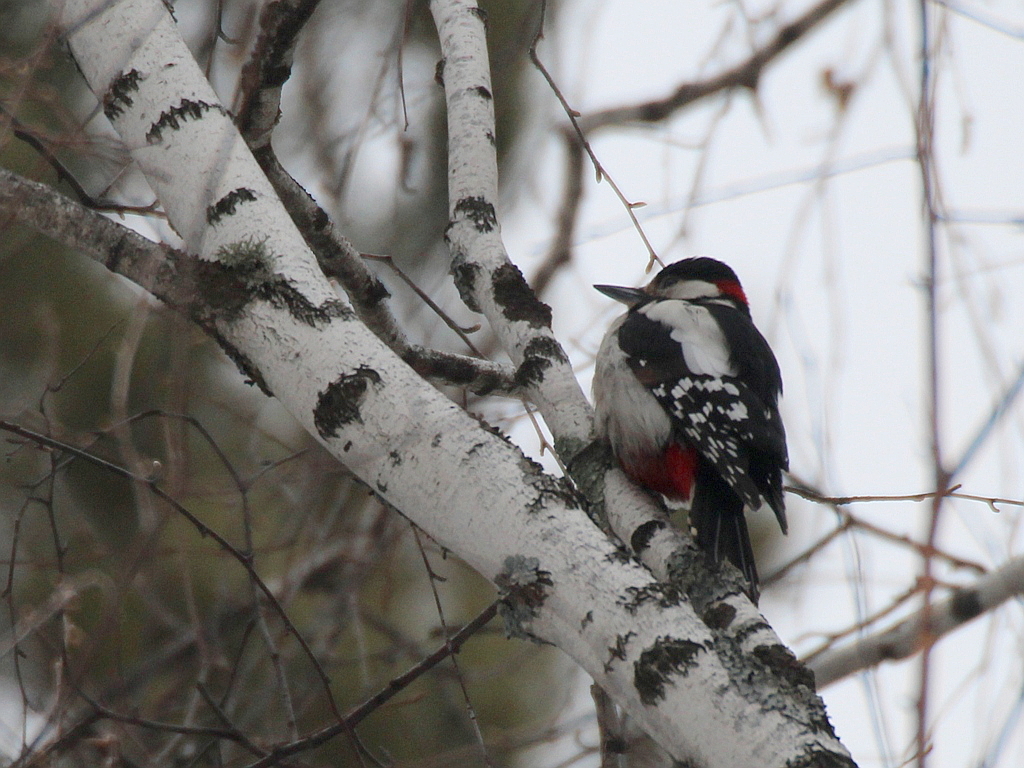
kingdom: Animalia
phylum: Chordata
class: Aves
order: Piciformes
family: Picidae
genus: Dendrocopos
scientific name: Dendrocopos major
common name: Great spotted woodpecker
